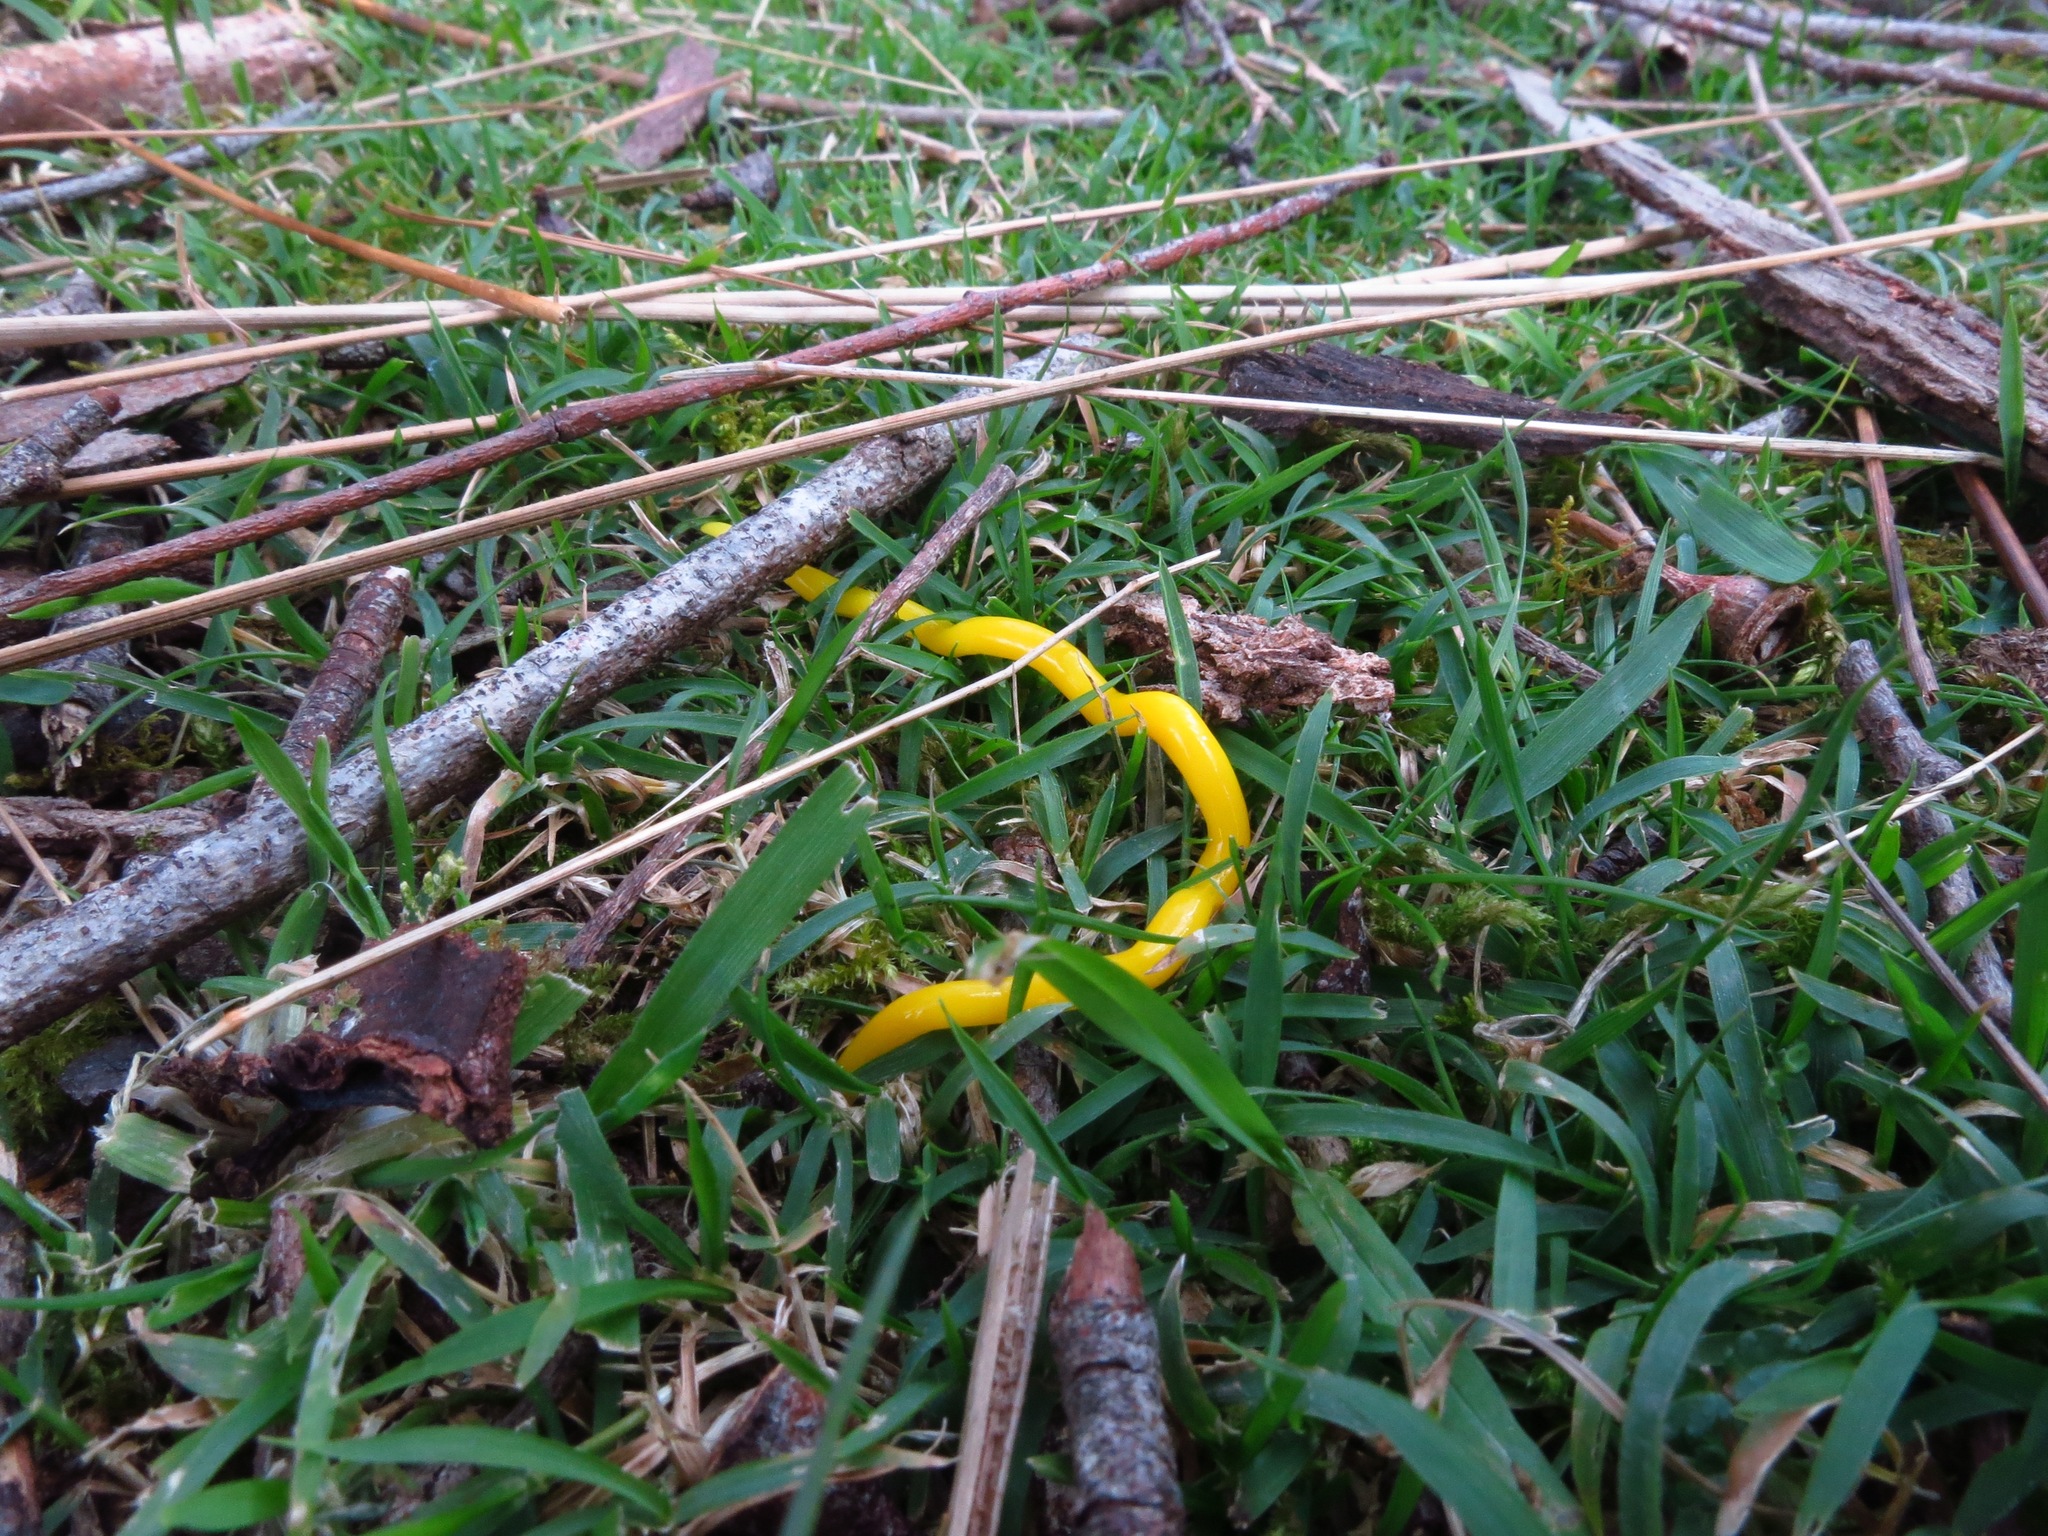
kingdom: Animalia
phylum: Platyhelminthes
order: Tricladida
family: Geoplanidae
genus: Fletchamia
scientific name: Fletchamia sugdeni
